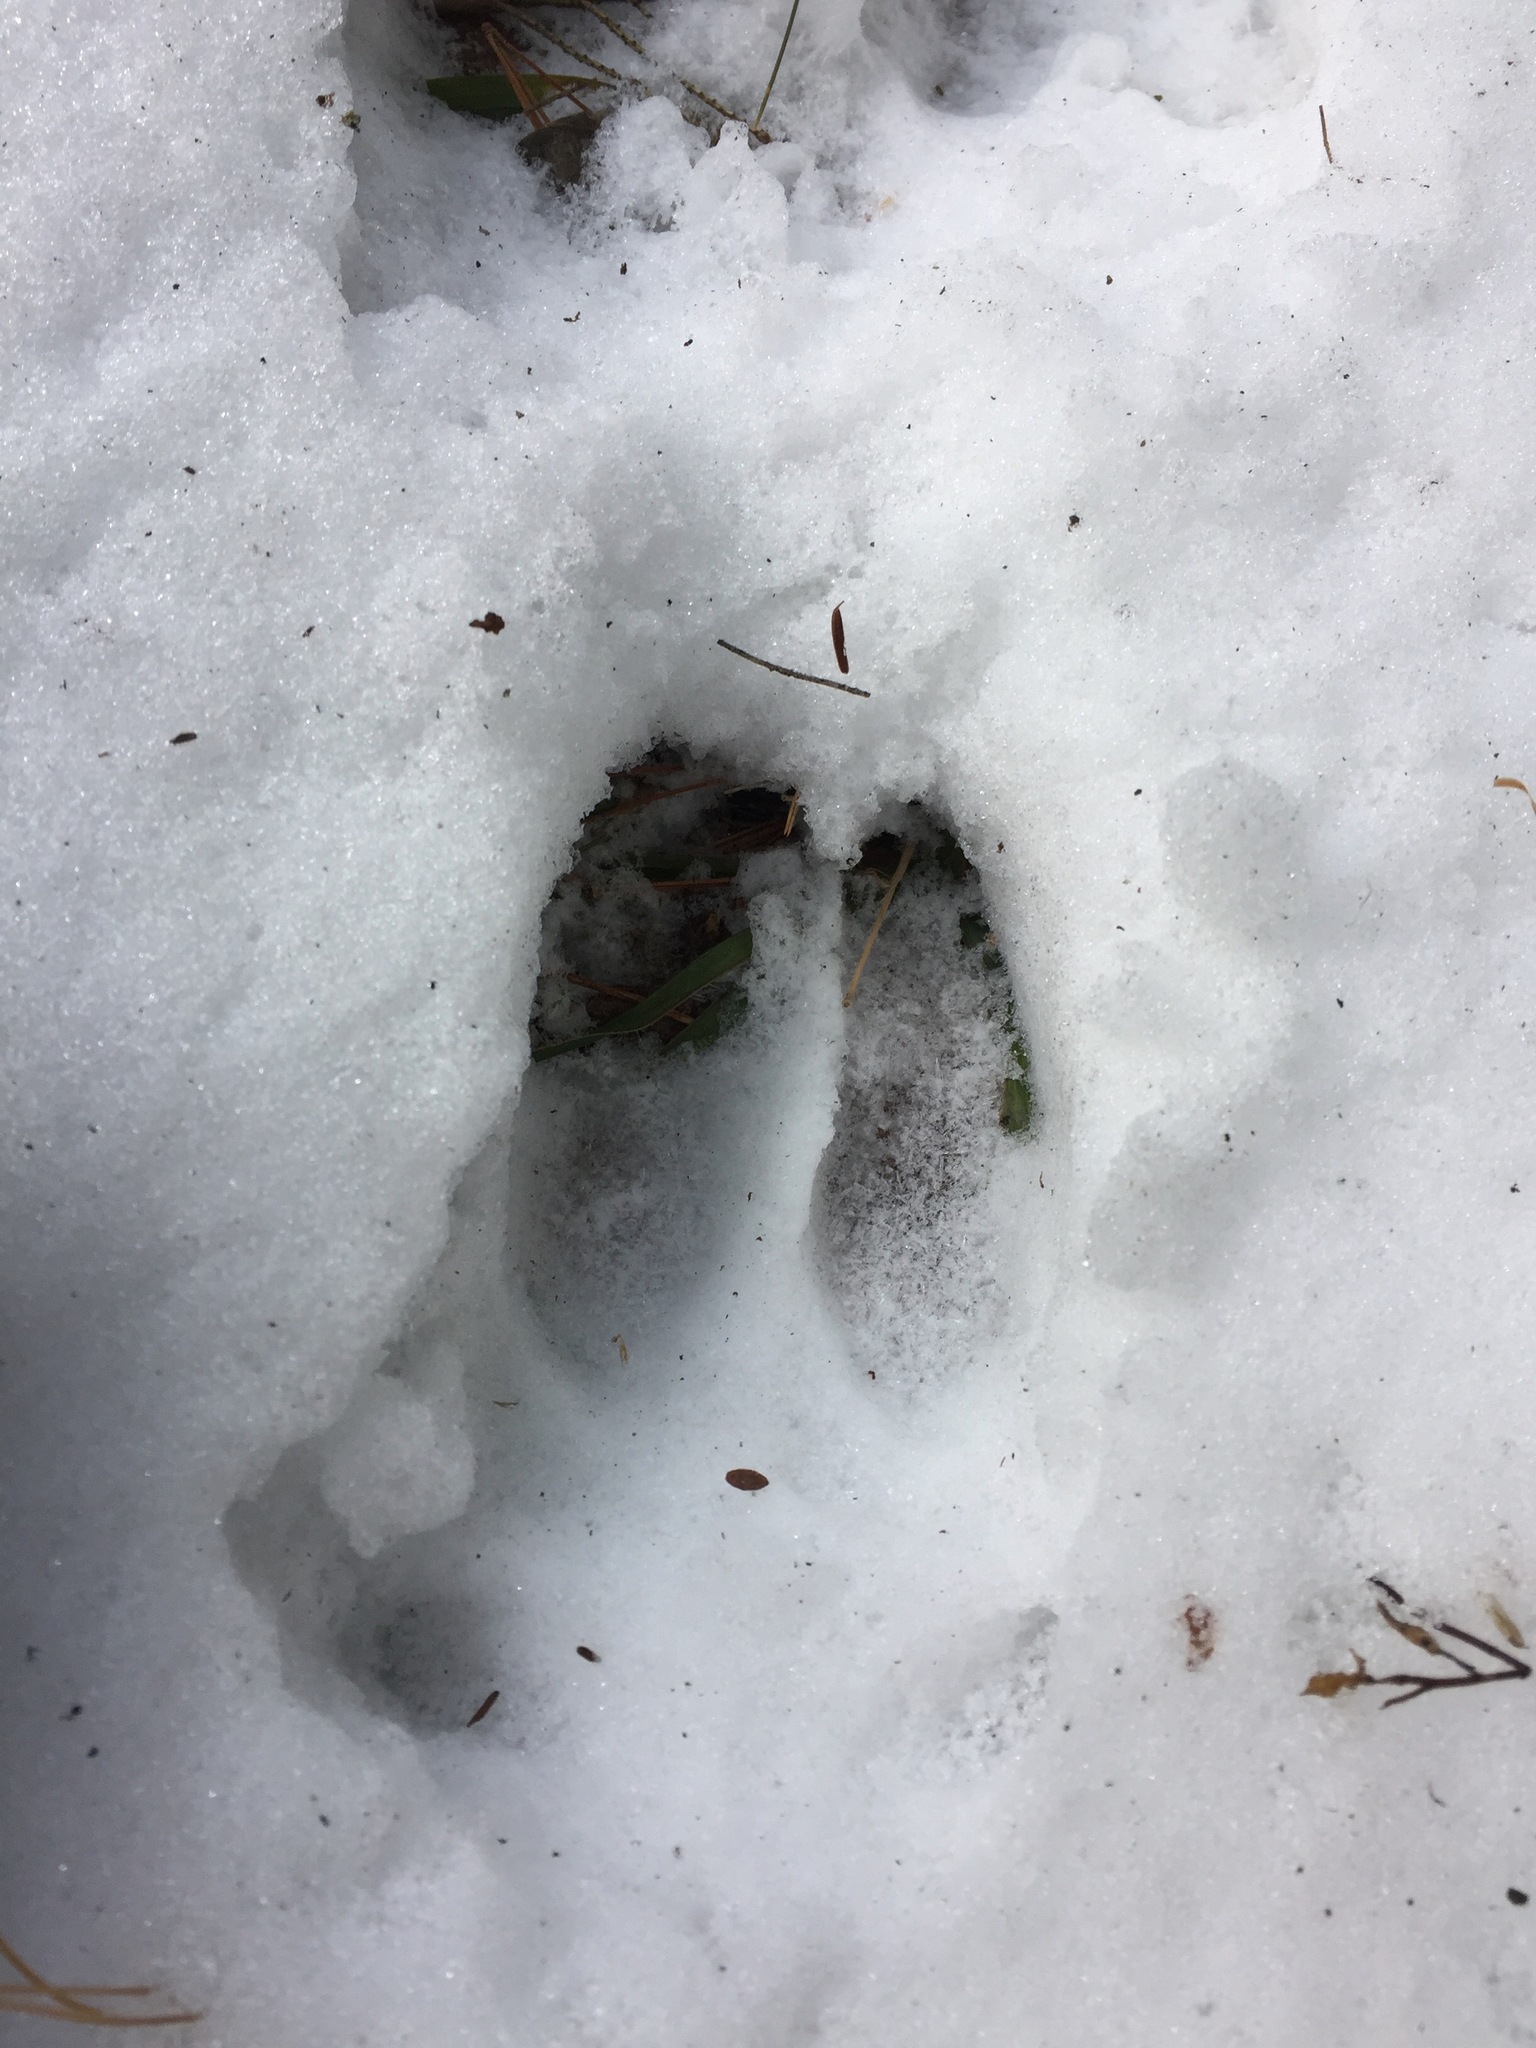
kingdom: Animalia
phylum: Chordata
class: Mammalia
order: Artiodactyla
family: Cervidae
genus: Odocoileus
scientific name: Odocoileus virginianus
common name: White-tailed deer
